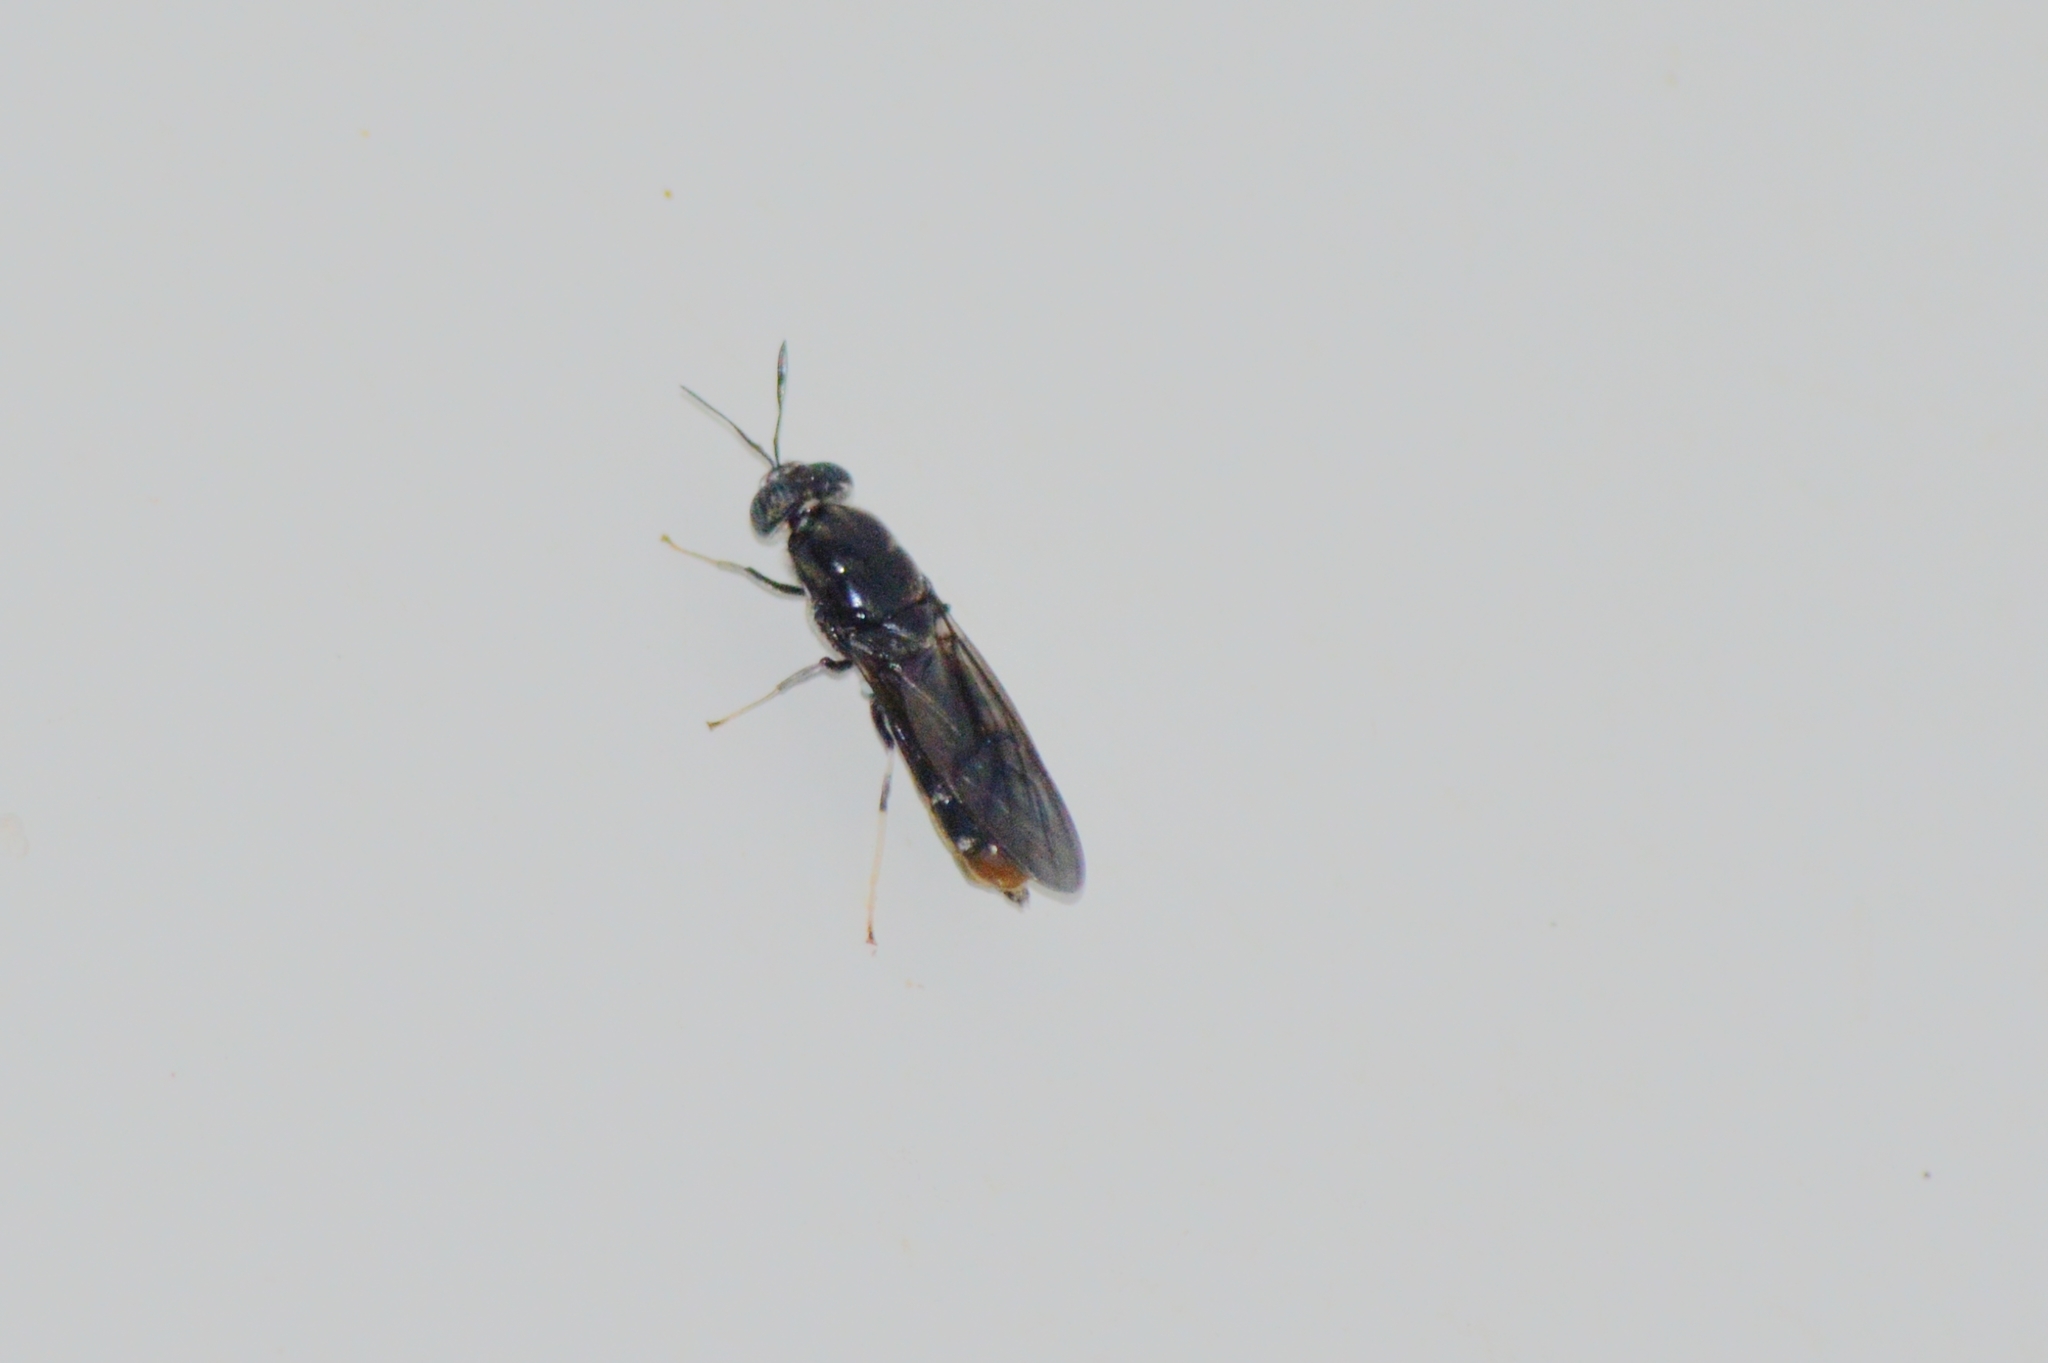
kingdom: Animalia
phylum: Arthropoda
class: Insecta
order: Diptera
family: Stratiomyidae
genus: Hermetia
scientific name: Hermetia illucens
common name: Black soldier fly
